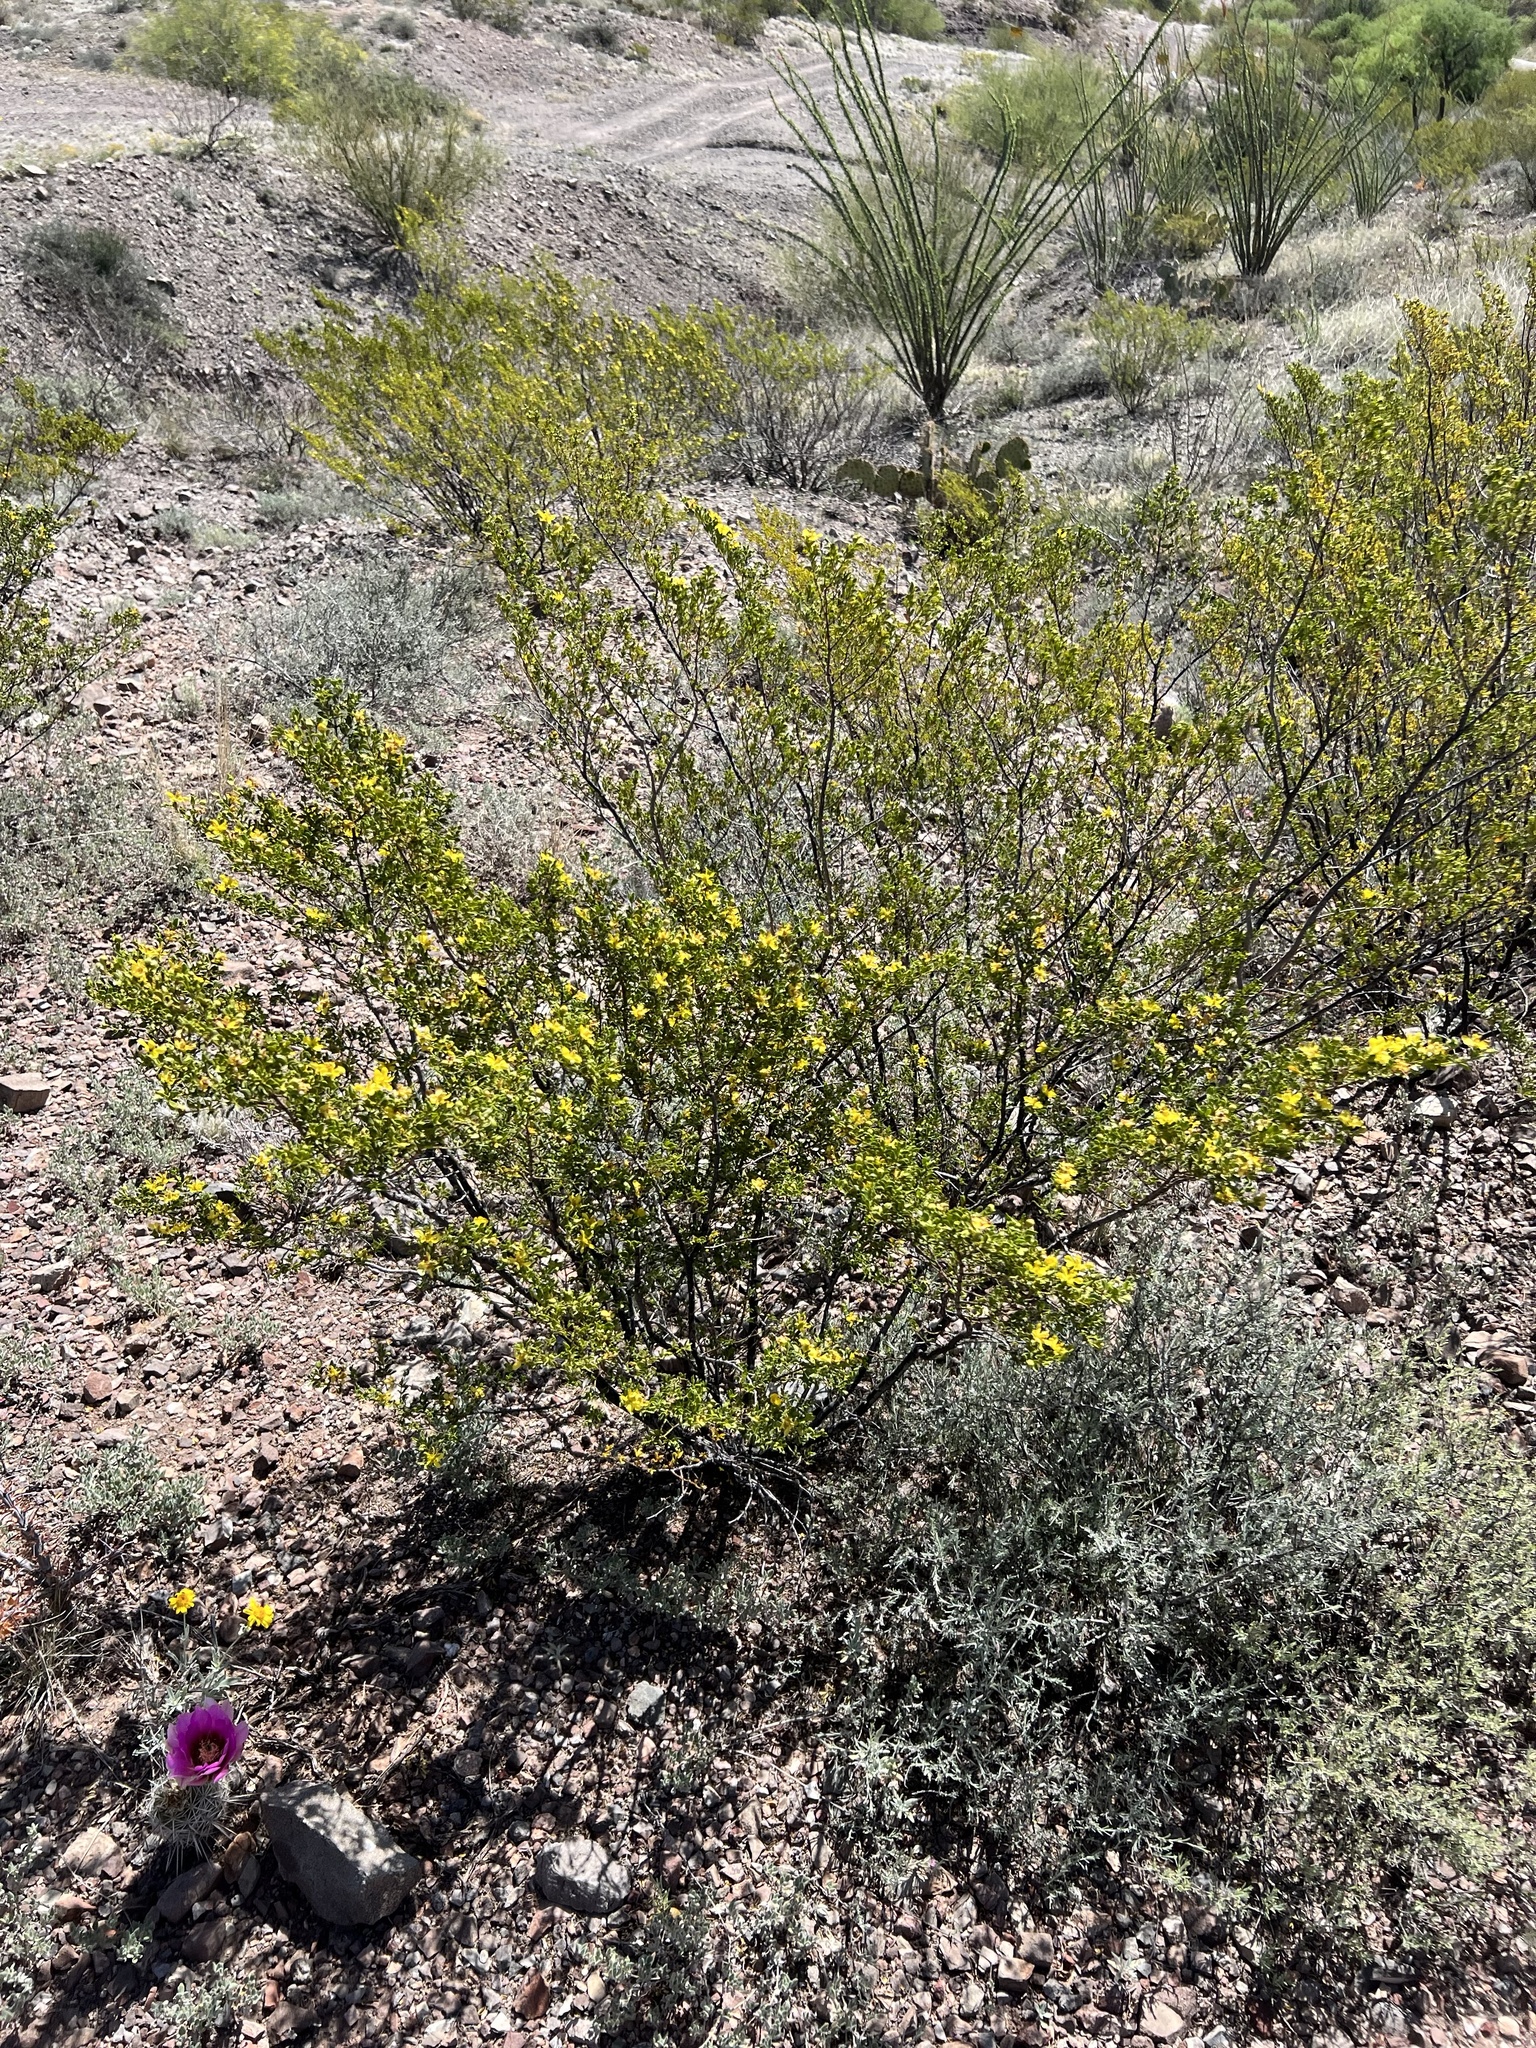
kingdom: Plantae
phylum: Tracheophyta
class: Magnoliopsida
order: Zygophyllales
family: Zygophyllaceae
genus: Larrea
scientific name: Larrea tridentata
